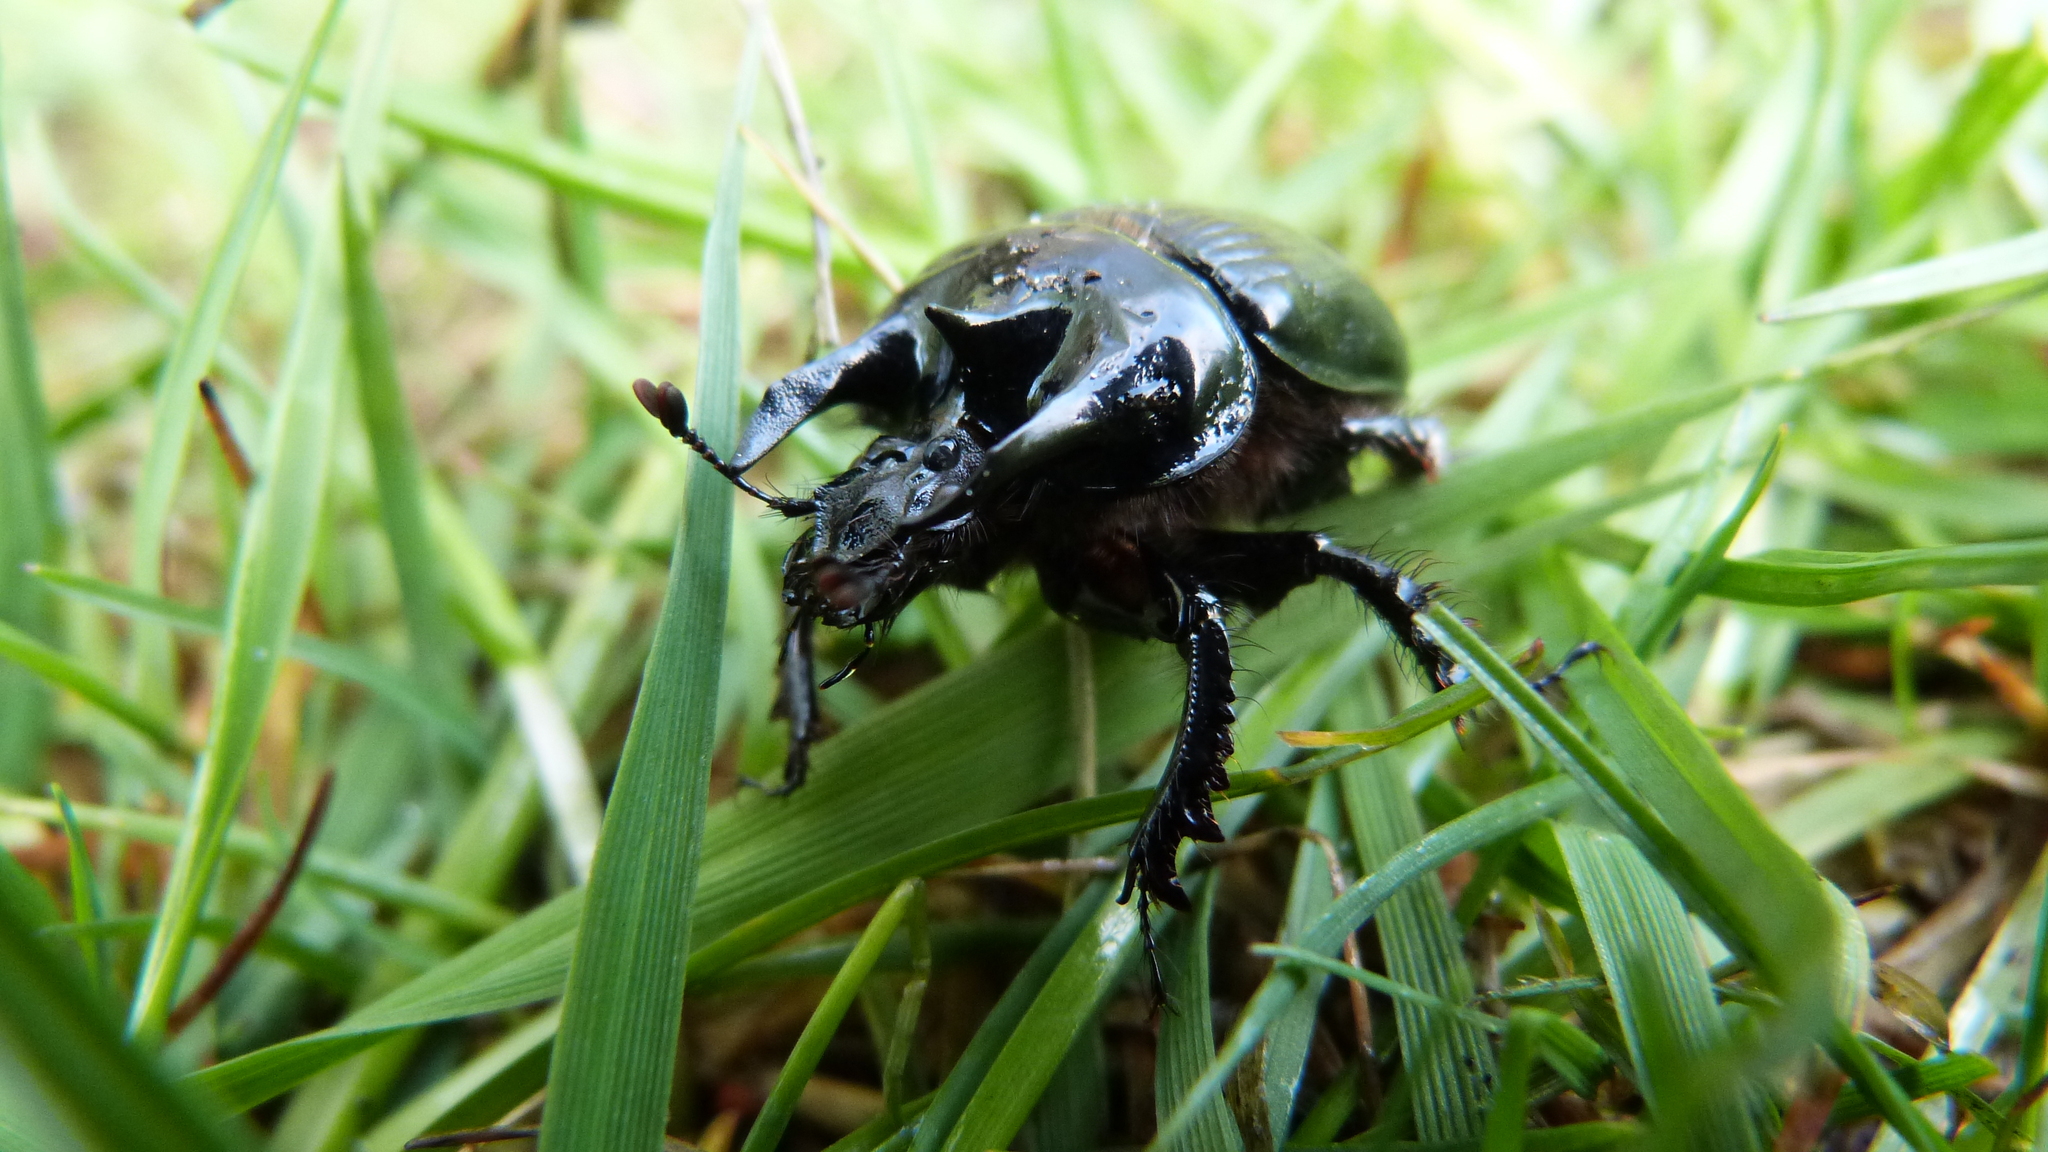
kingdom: Animalia
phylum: Arthropoda
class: Insecta
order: Coleoptera
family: Geotrupidae
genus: Typhaeus
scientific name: Typhaeus typhoeus
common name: Minotaur beetle
